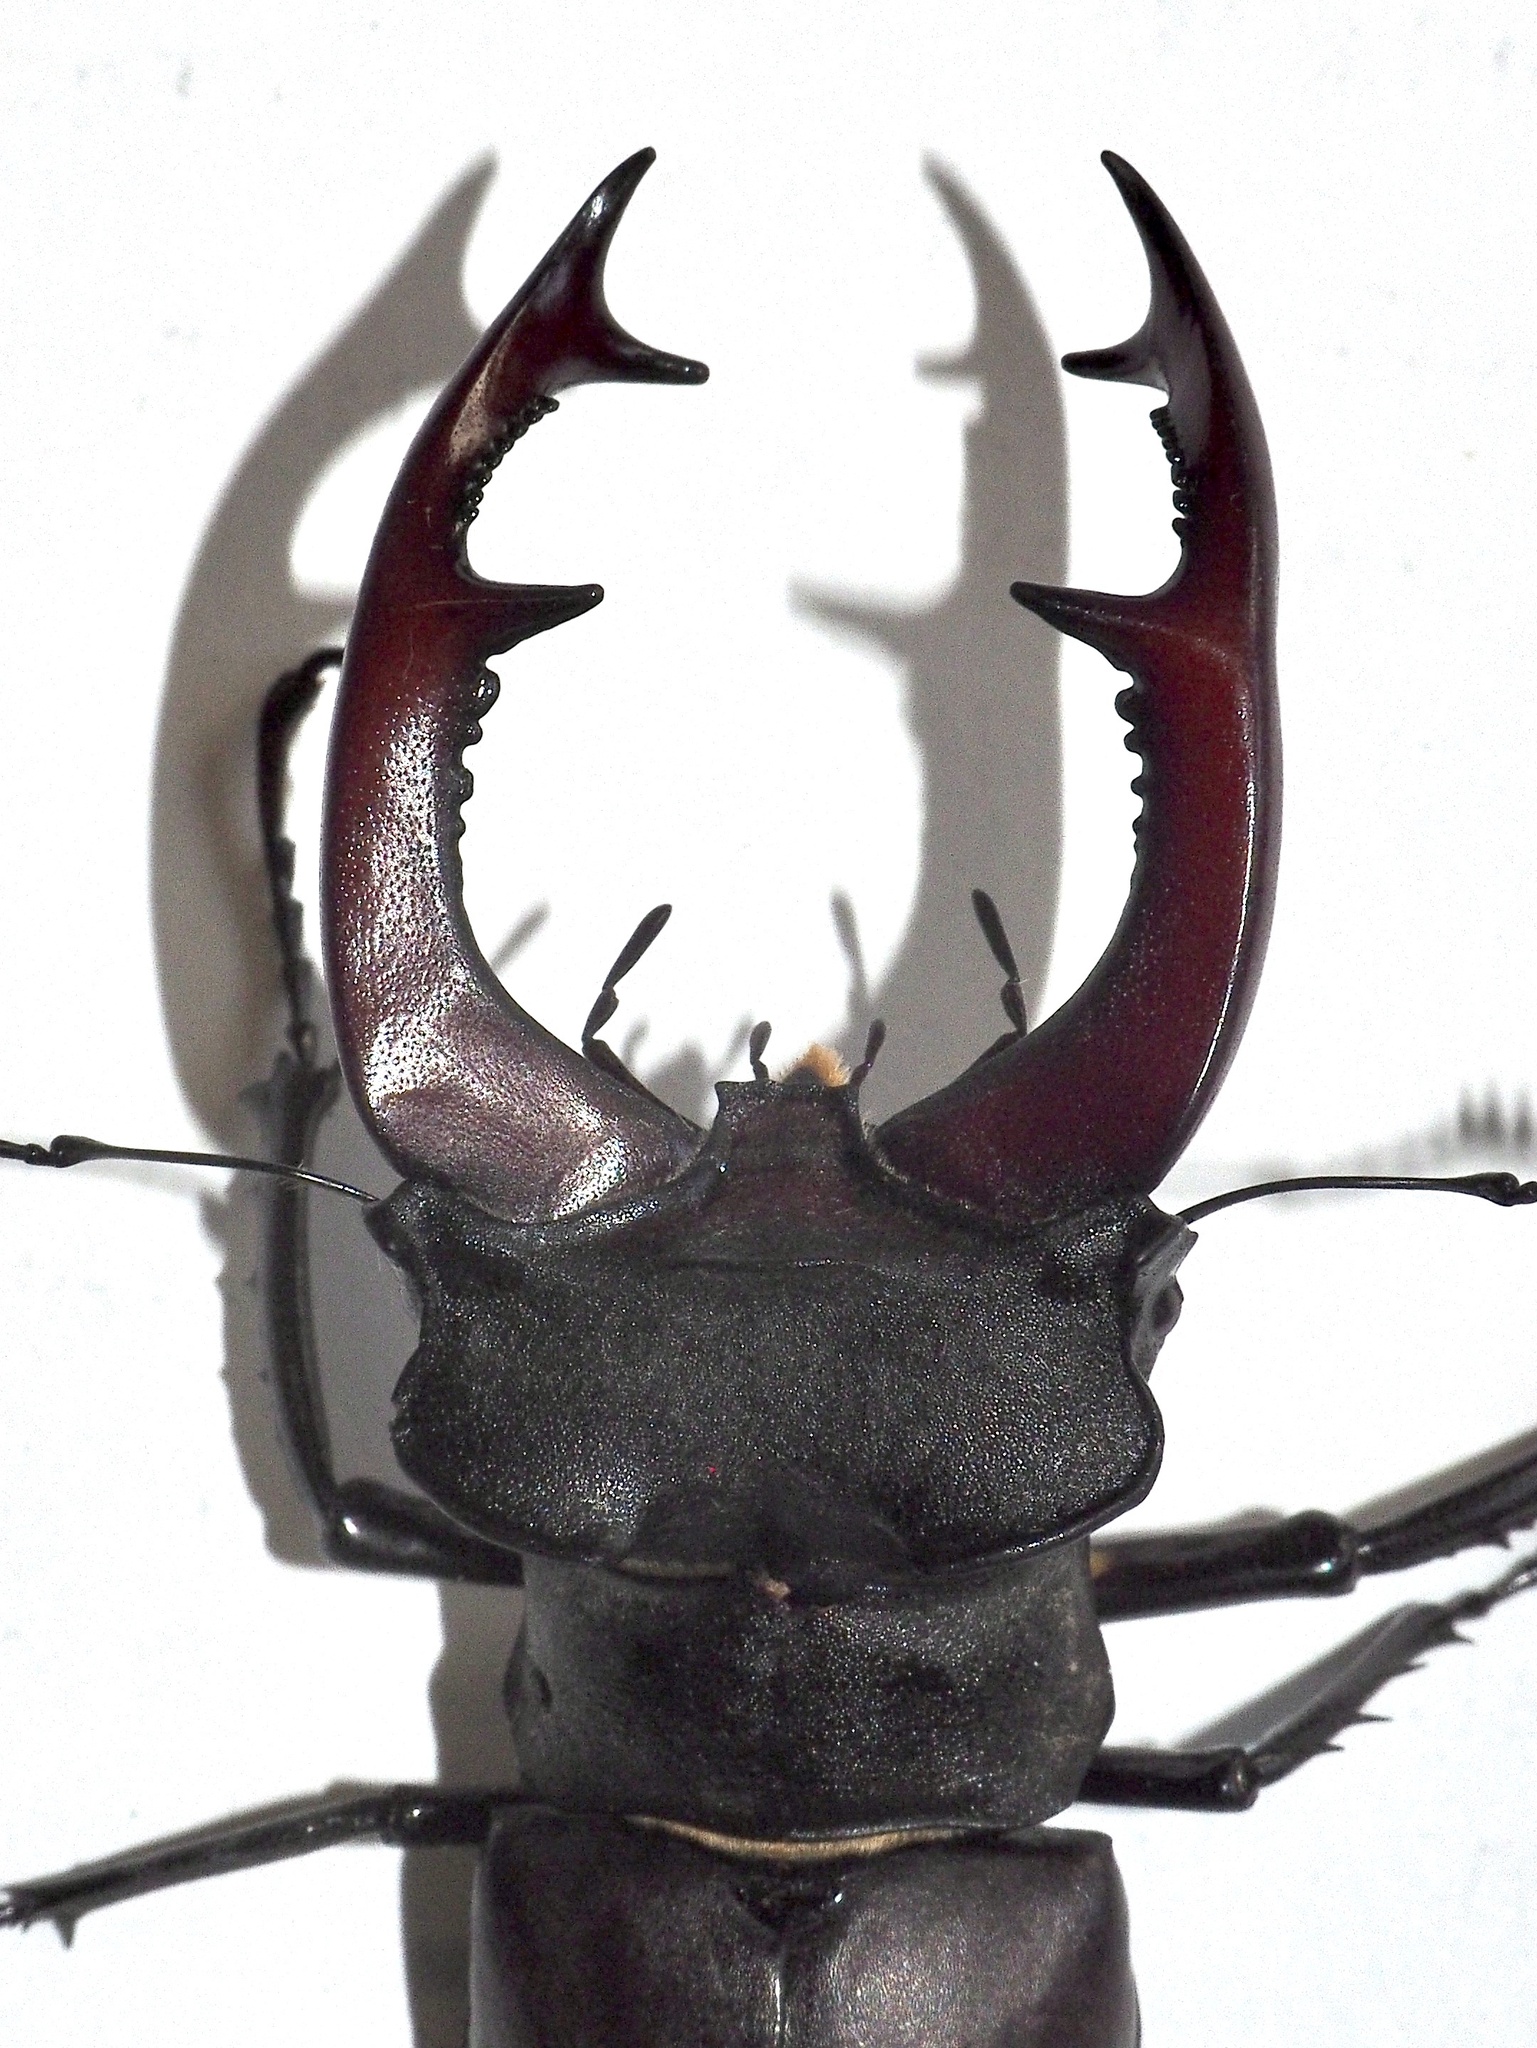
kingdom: Animalia
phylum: Arthropoda
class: Insecta
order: Coleoptera
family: Lucanidae
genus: Lucanus
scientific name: Lucanus cervus
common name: Stag beetle
